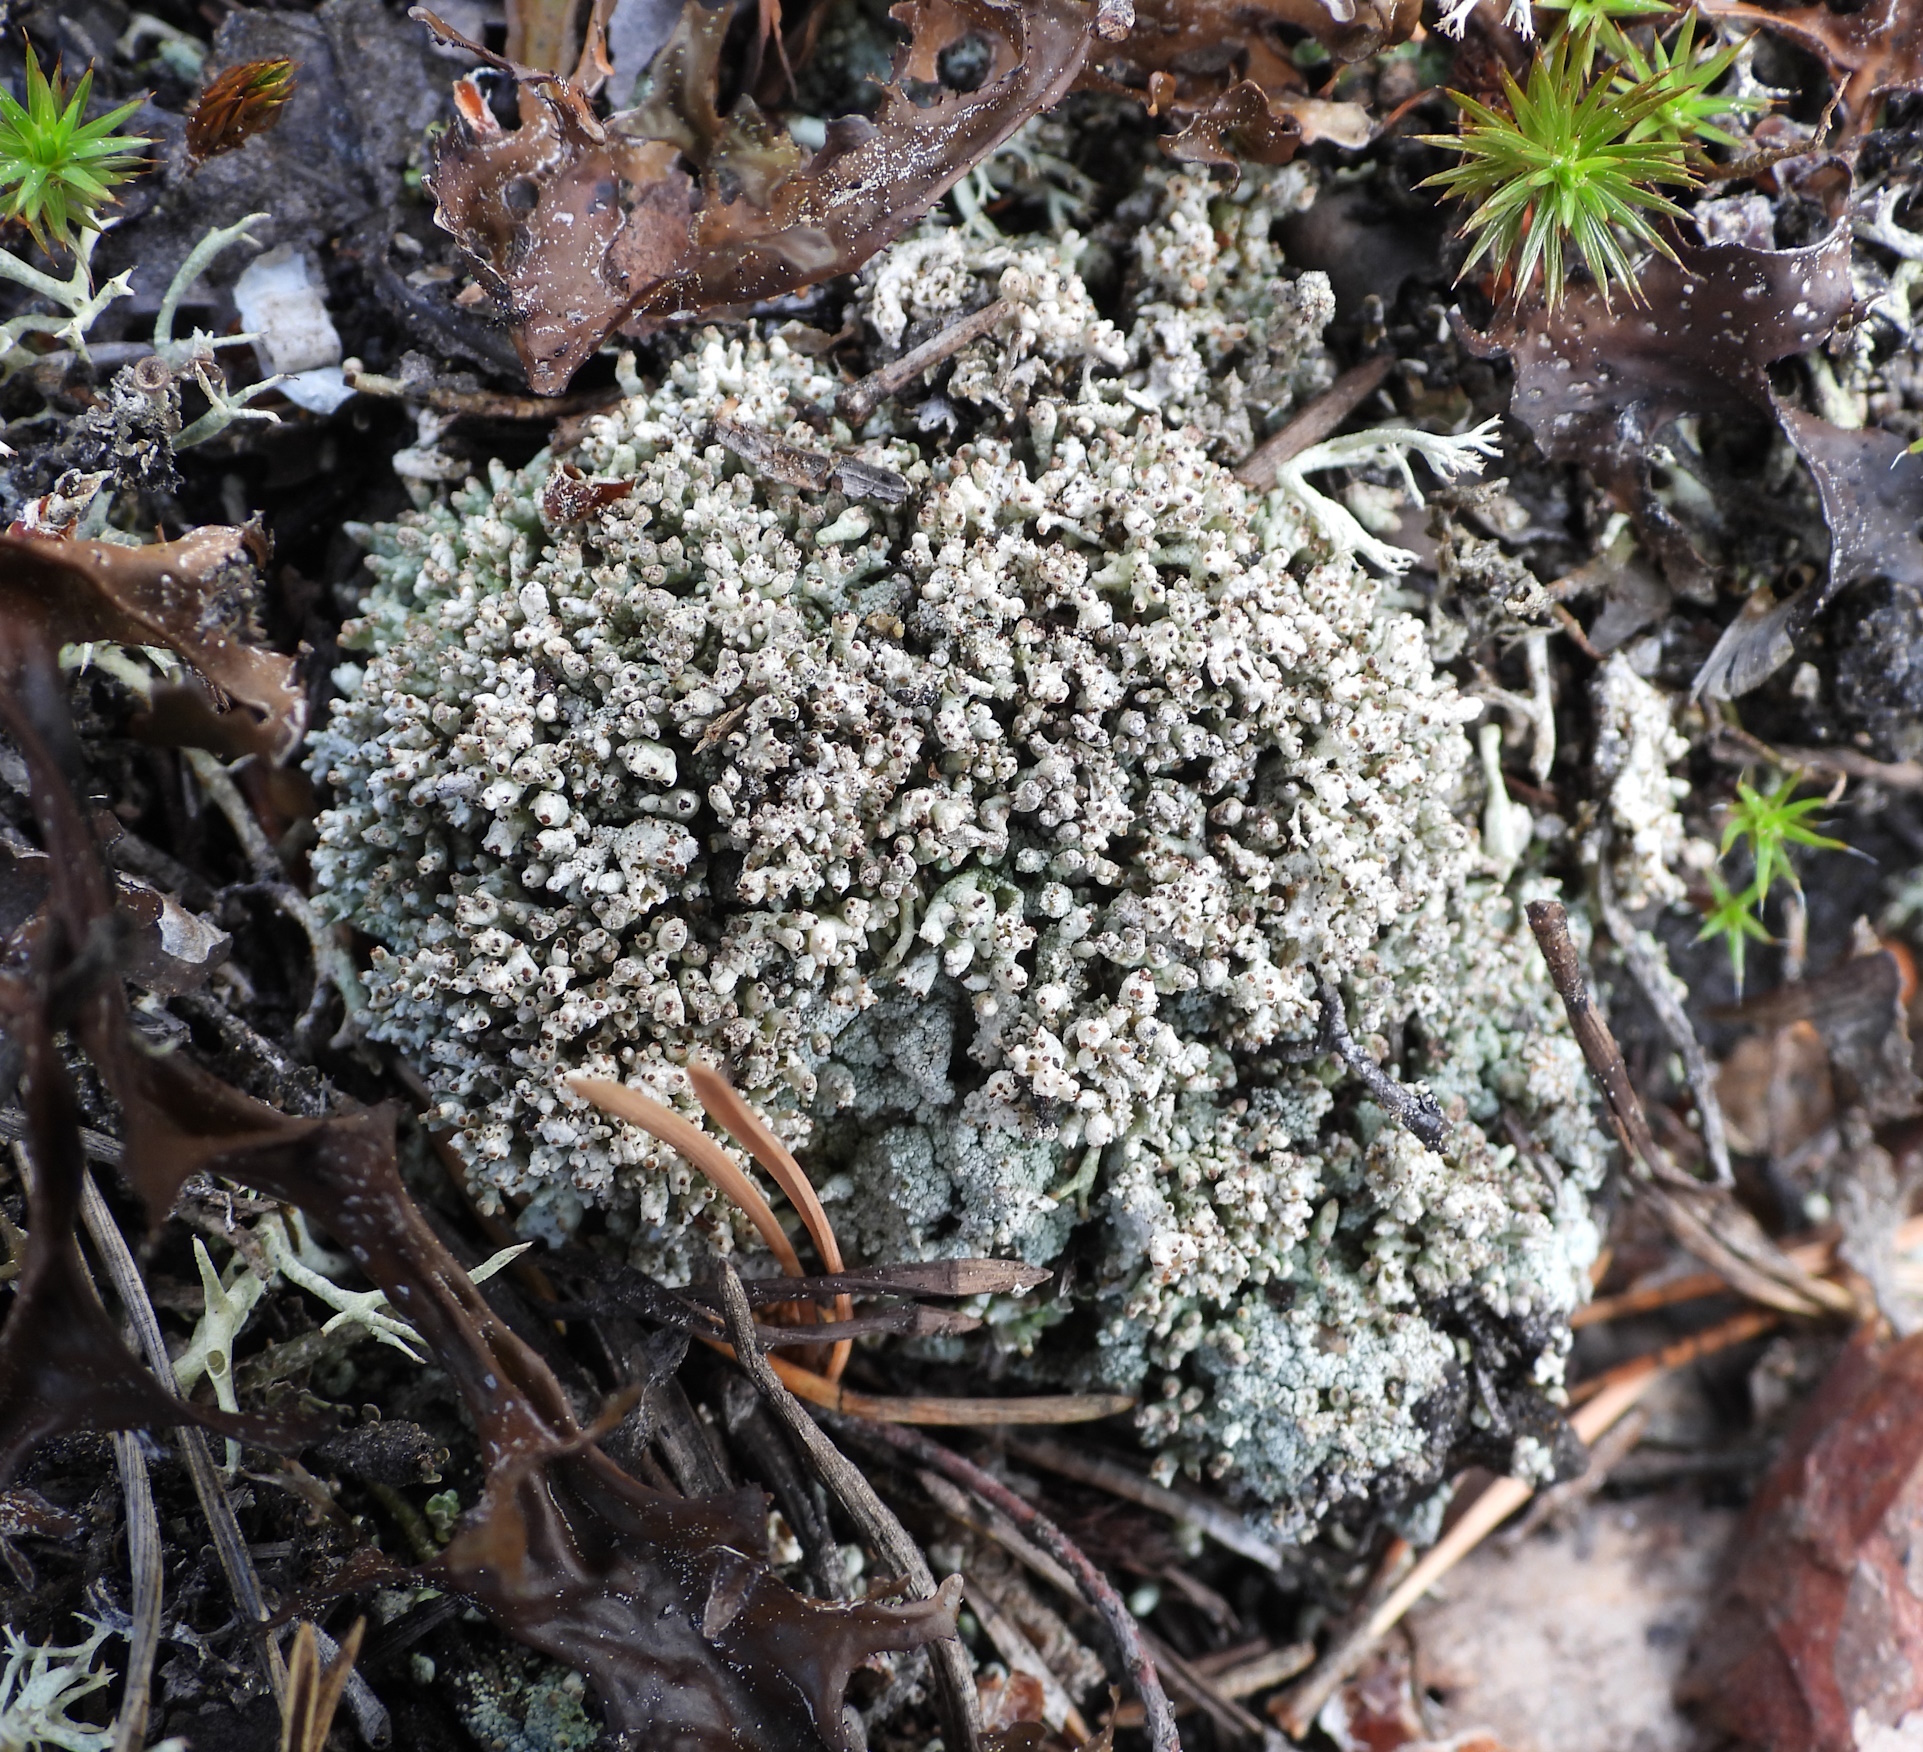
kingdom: Fungi
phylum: Ascomycota
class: Lecanoromycetes
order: Lecanorales
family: Cladoniaceae
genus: Pycnothelia
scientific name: Pycnothelia papillaria
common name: Nipple lichen
